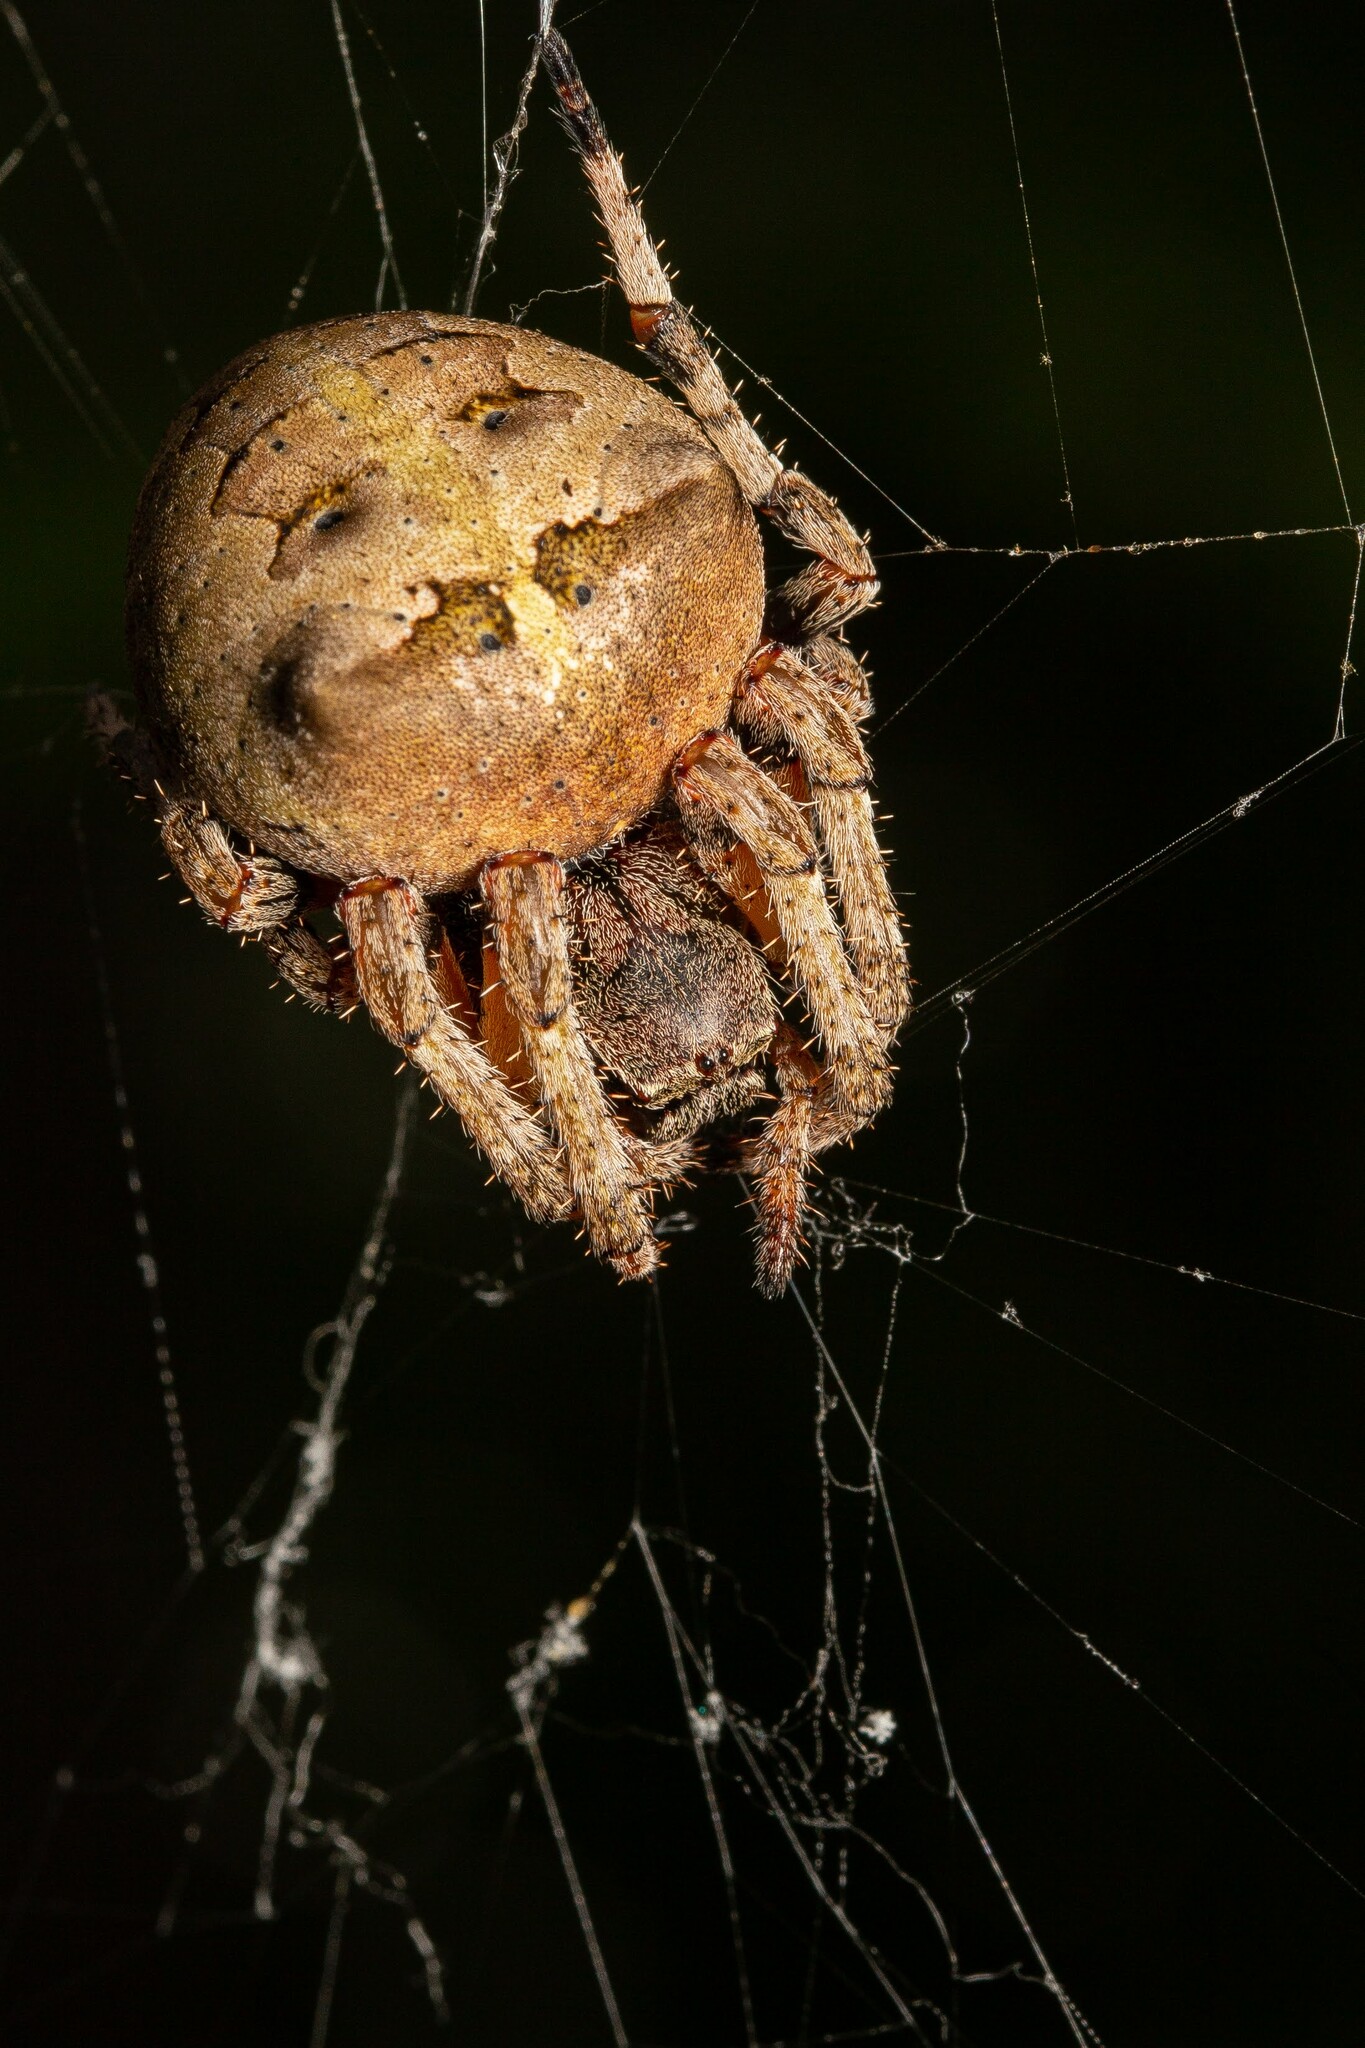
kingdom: Animalia
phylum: Arthropoda
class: Arachnida
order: Araneae
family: Araneidae
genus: Araneus
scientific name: Araneus bicentenarius
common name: Giant lichen orbweaver
